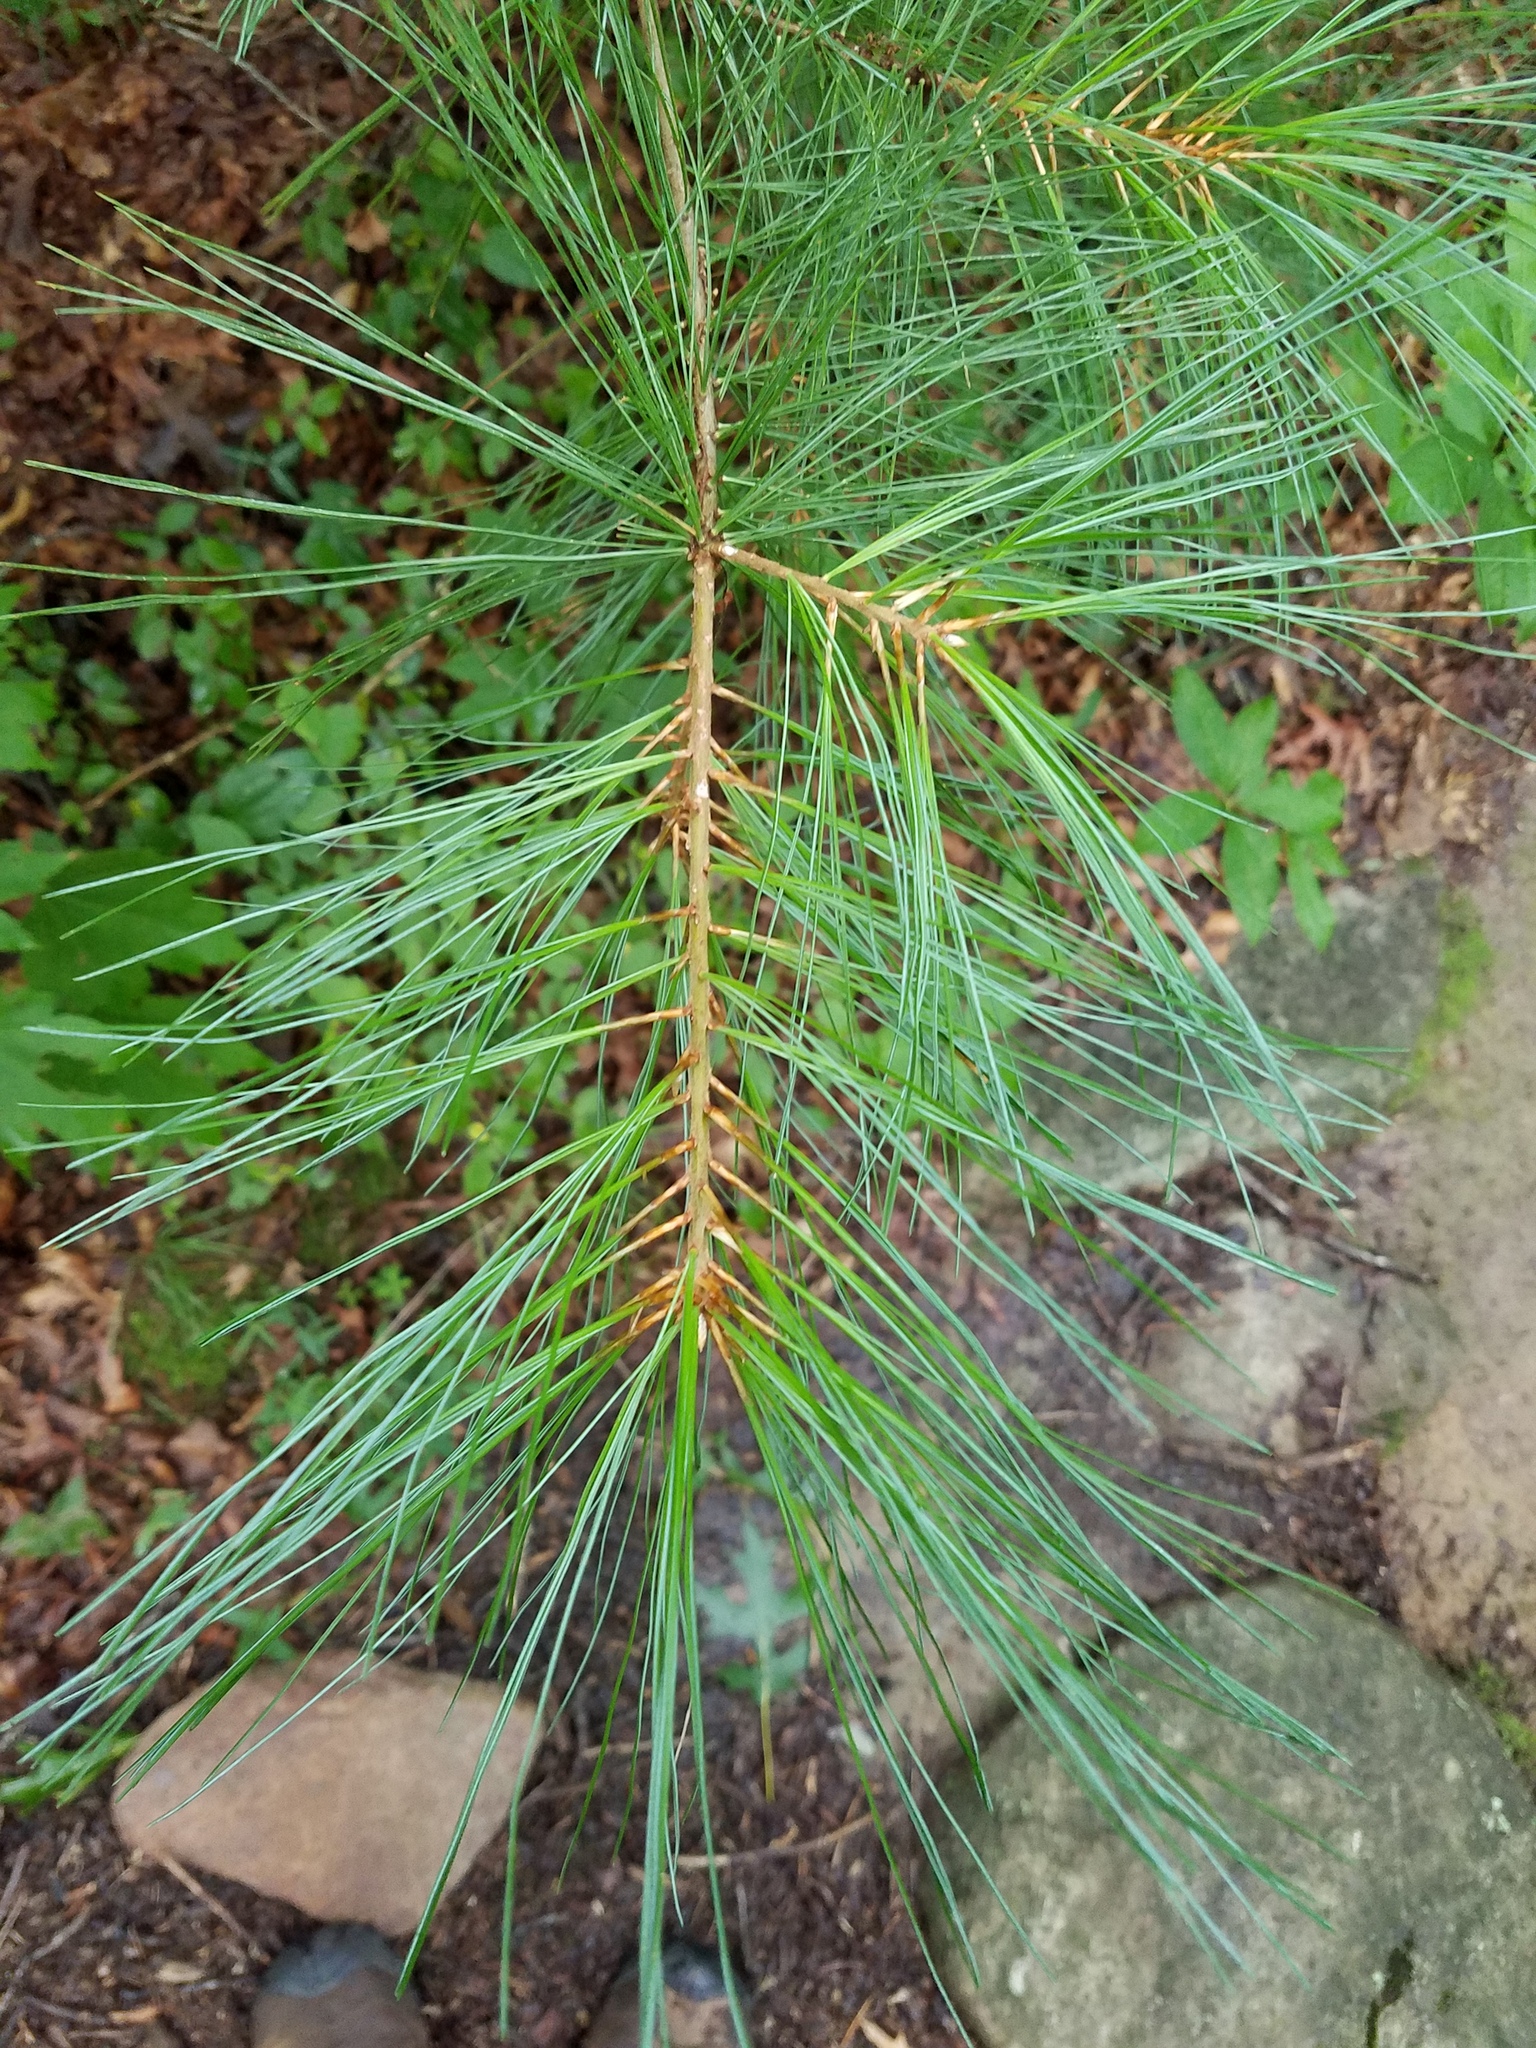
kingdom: Plantae
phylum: Tracheophyta
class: Pinopsida
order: Pinales
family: Pinaceae
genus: Pinus
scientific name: Pinus strobus
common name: Weymouth pine
